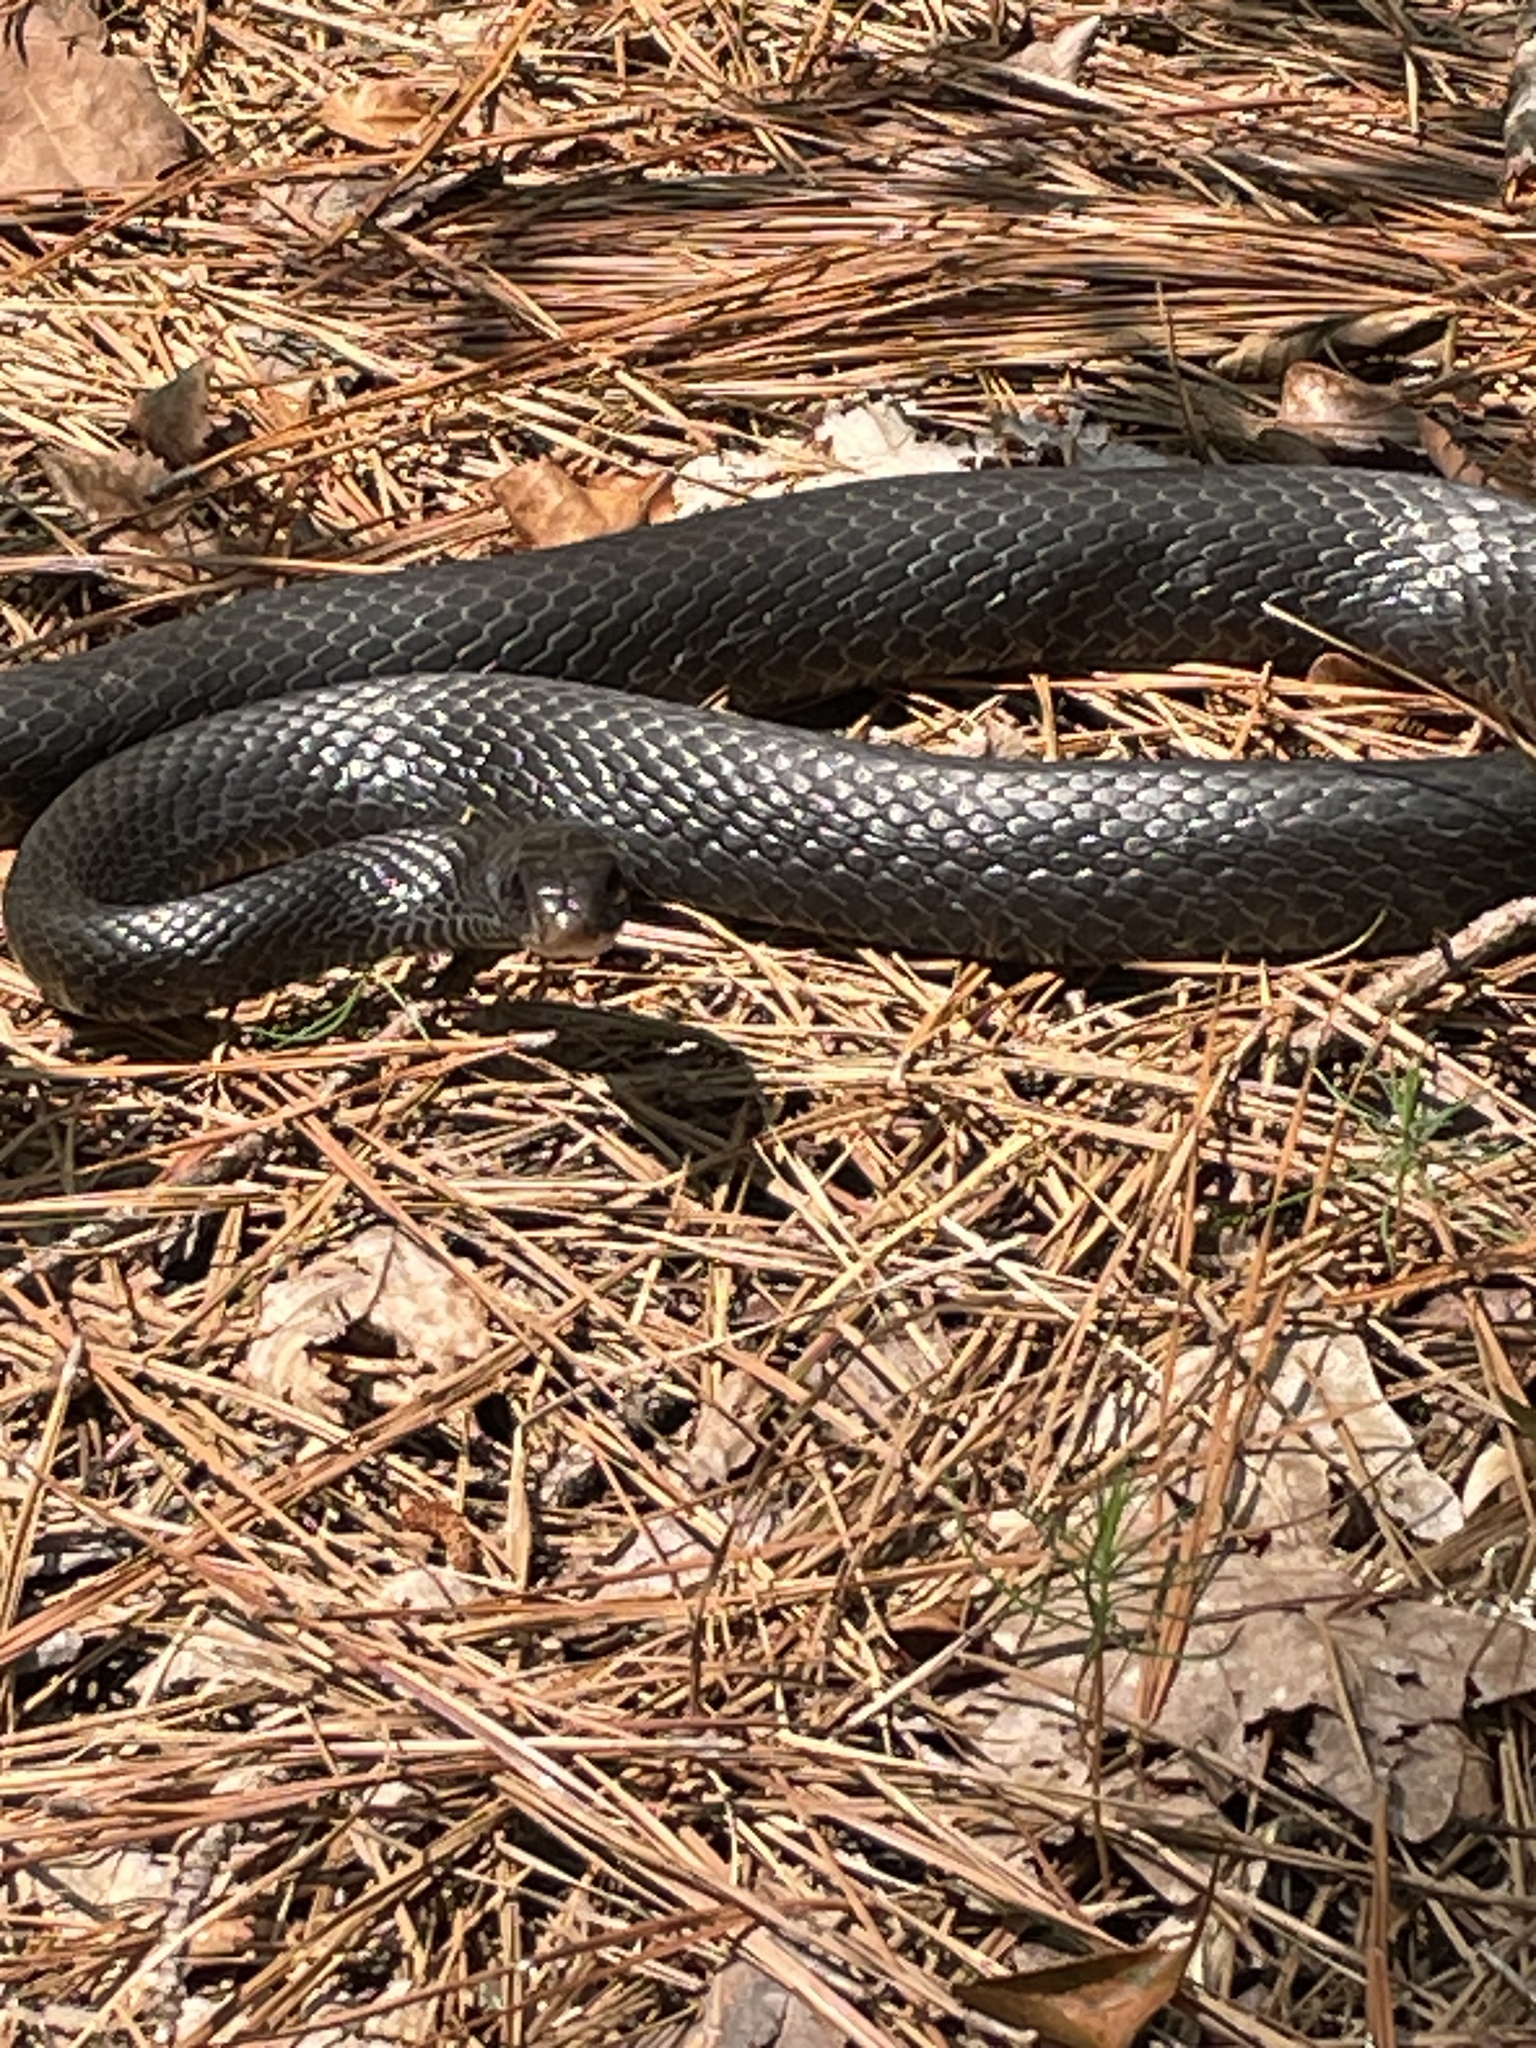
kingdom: Animalia
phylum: Chordata
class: Squamata
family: Colubridae
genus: Coluber
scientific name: Coluber constrictor
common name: Eastern racer
